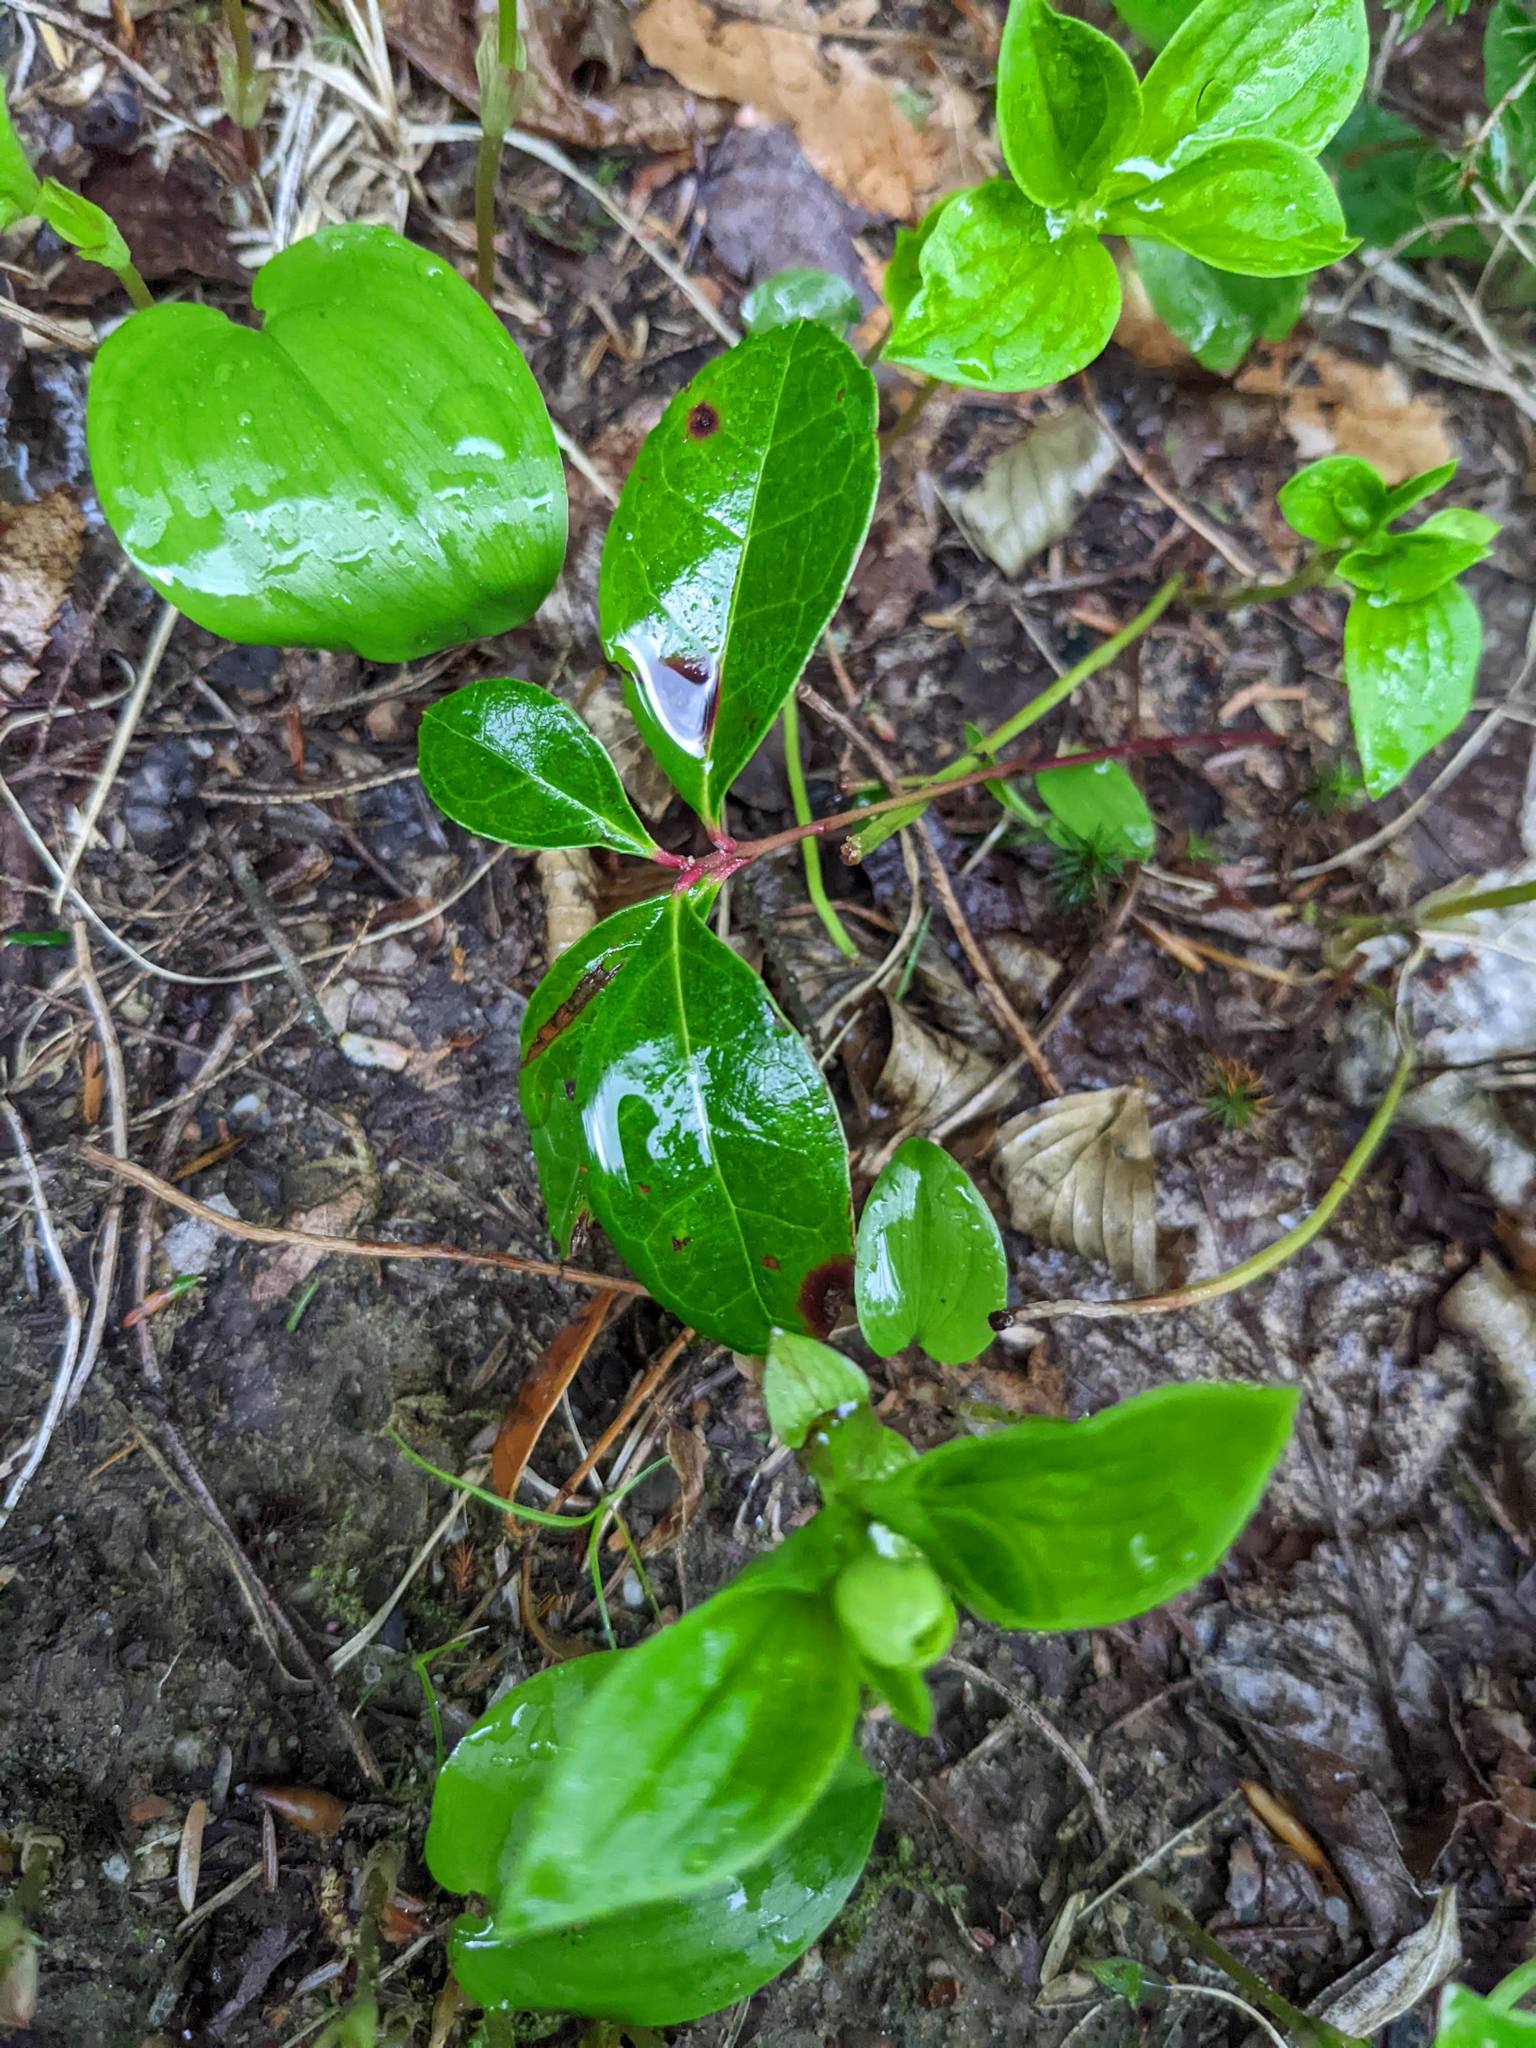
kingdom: Plantae
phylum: Tracheophyta
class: Magnoliopsida
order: Ericales
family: Ericaceae
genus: Gaultheria
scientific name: Gaultheria procumbens
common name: Checkerberry
